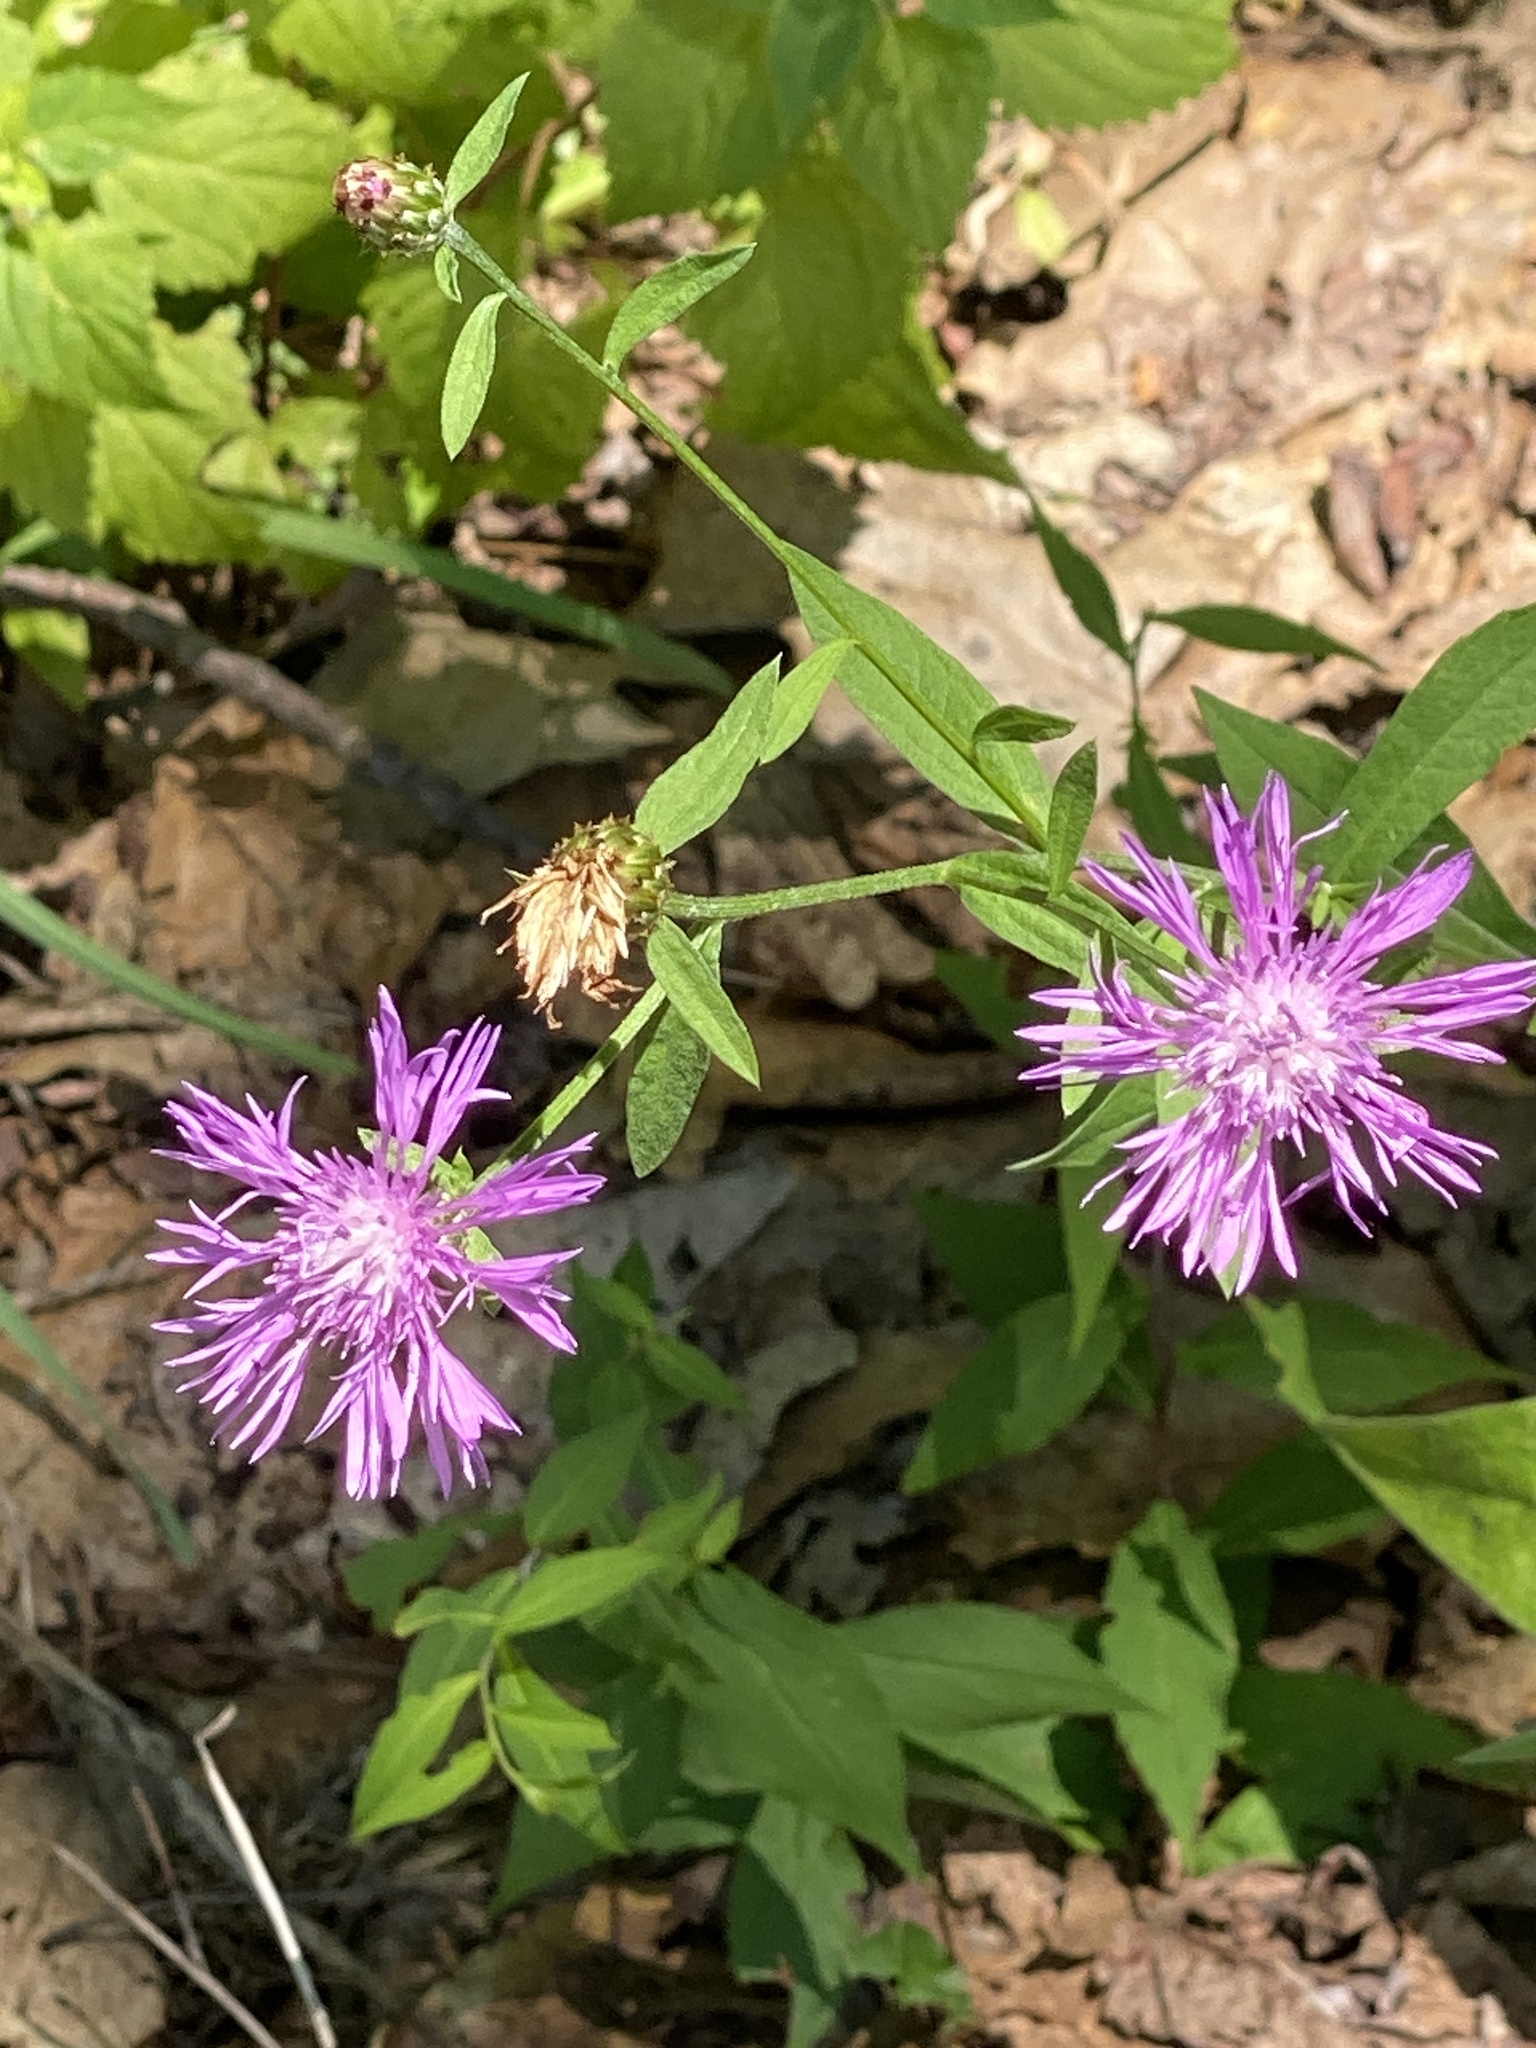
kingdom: Plantae
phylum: Tracheophyta
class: Magnoliopsida
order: Asterales
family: Asteraceae
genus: Centaurea
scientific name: Centaurea nigrescens
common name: Tyrol knapweed
